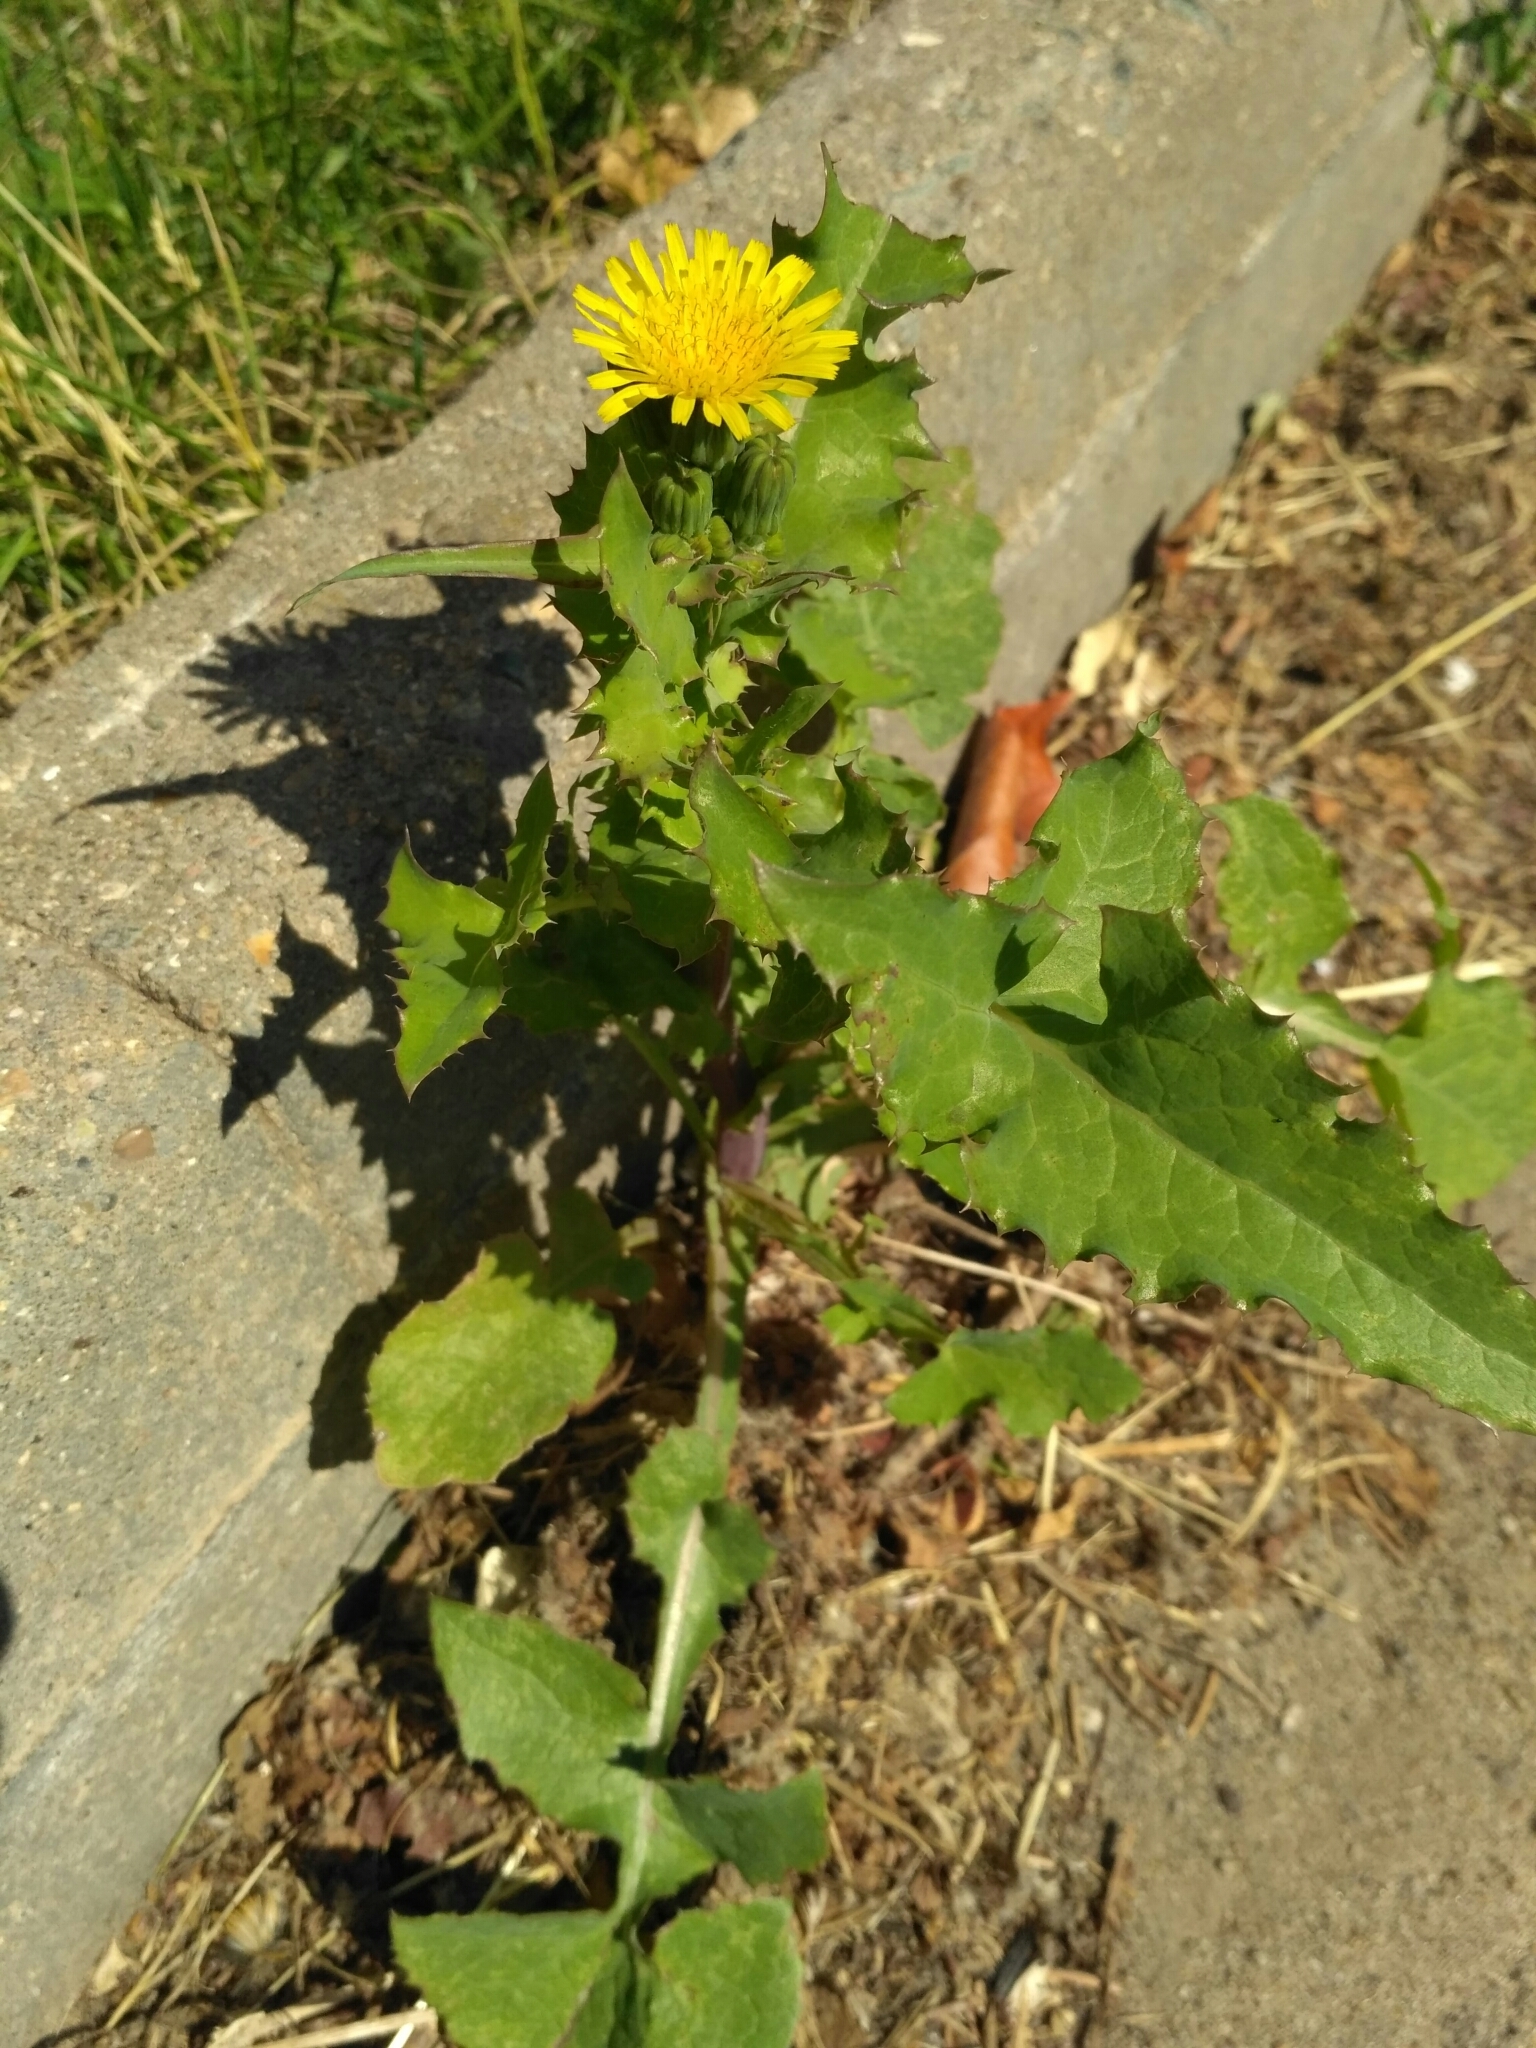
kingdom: Plantae
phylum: Tracheophyta
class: Magnoliopsida
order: Asterales
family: Asteraceae
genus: Sonchus
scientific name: Sonchus oleraceus
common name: Common sowthistle
